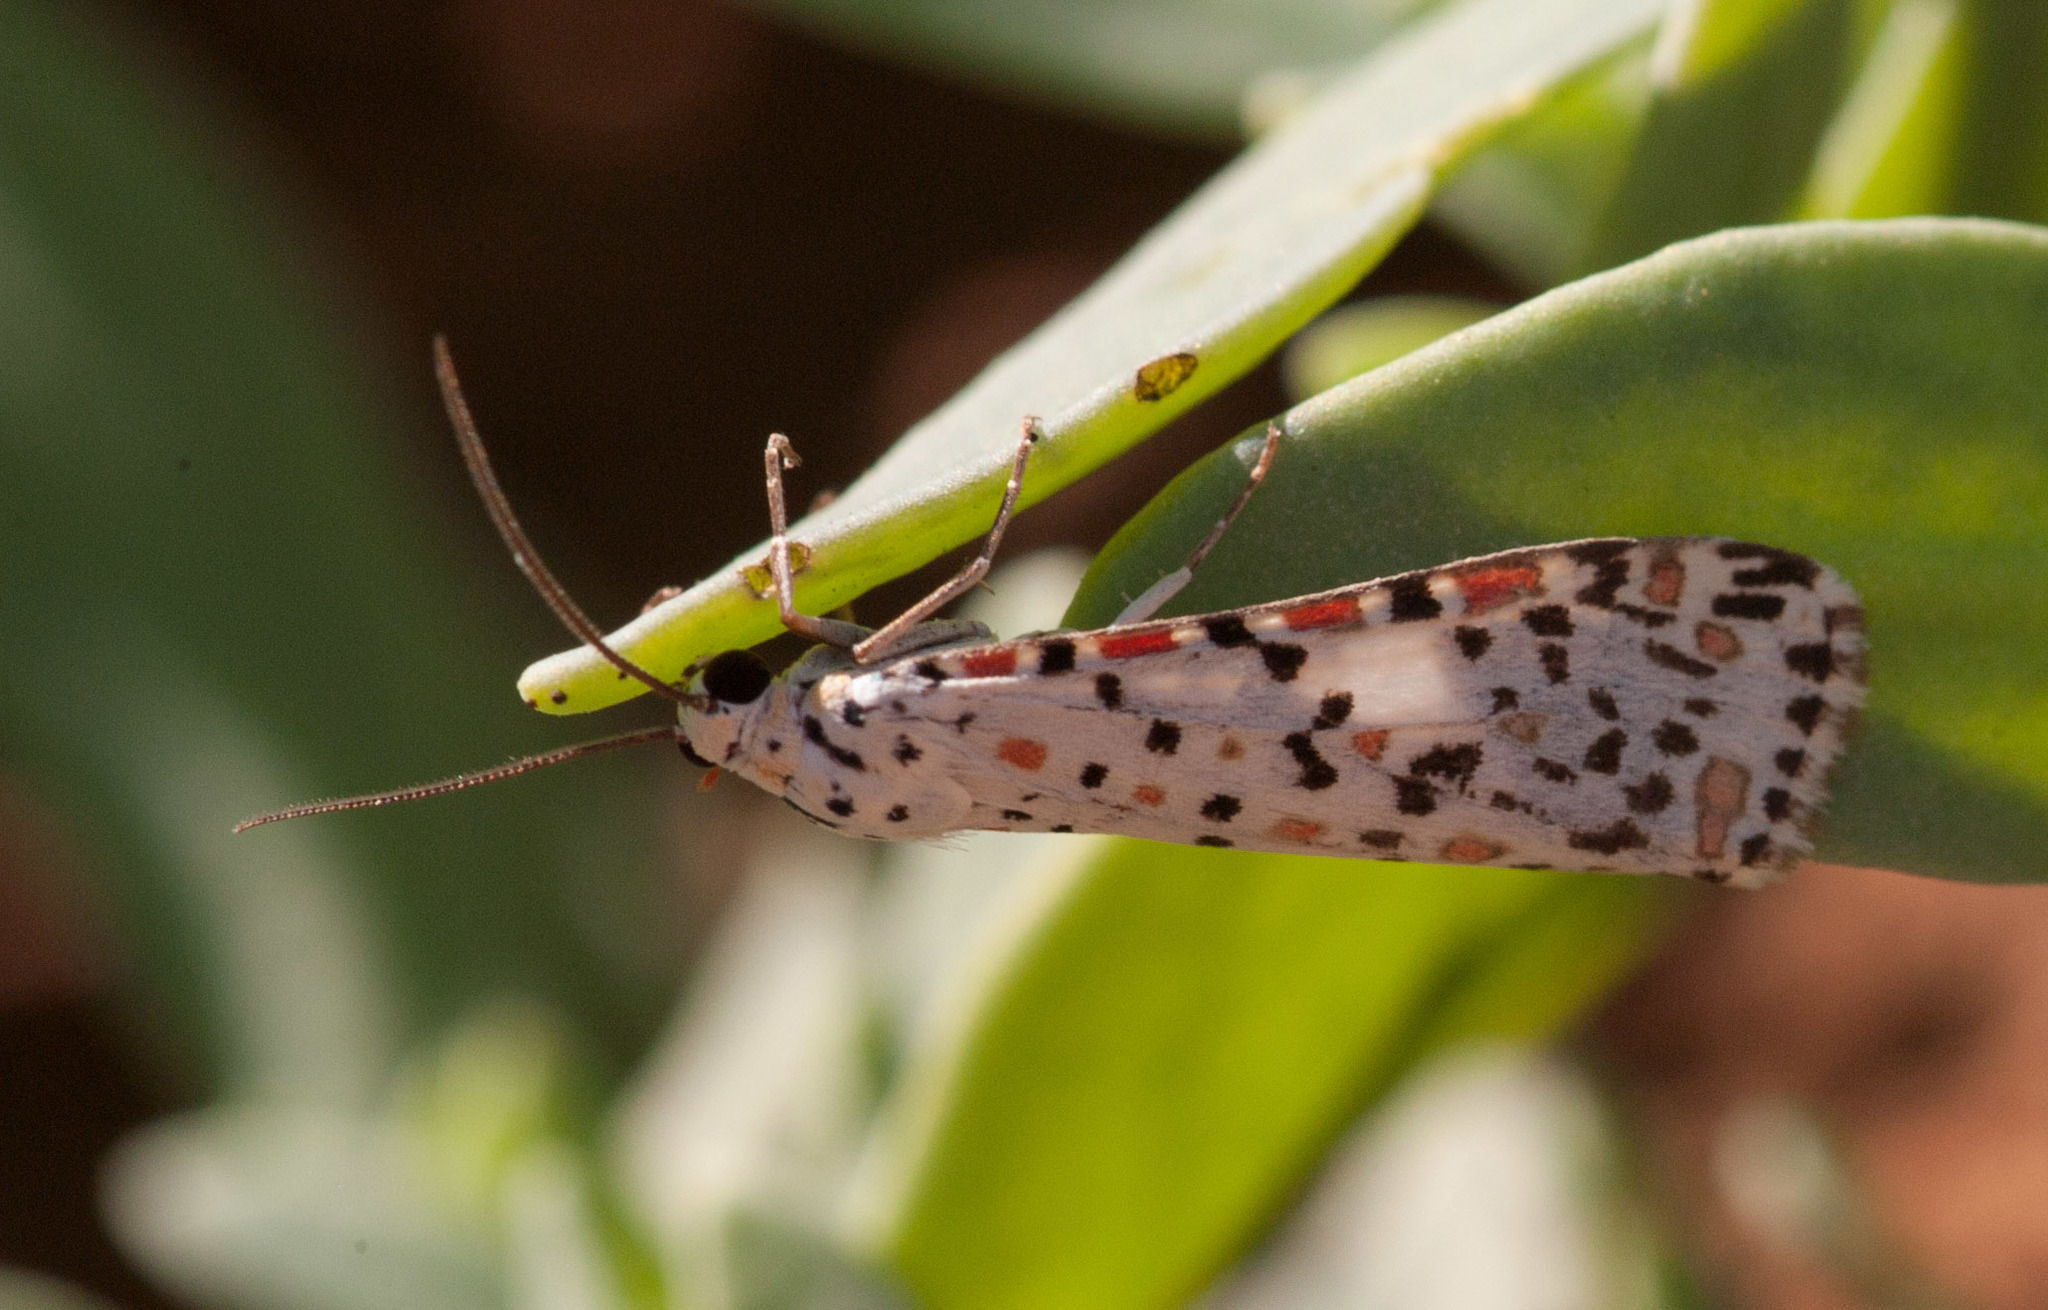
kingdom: Animalia
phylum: Arthropoda
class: Insecta
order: Lepidoptera
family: Erebidae
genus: Utetheisa
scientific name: Utetheisa pulchelloides
